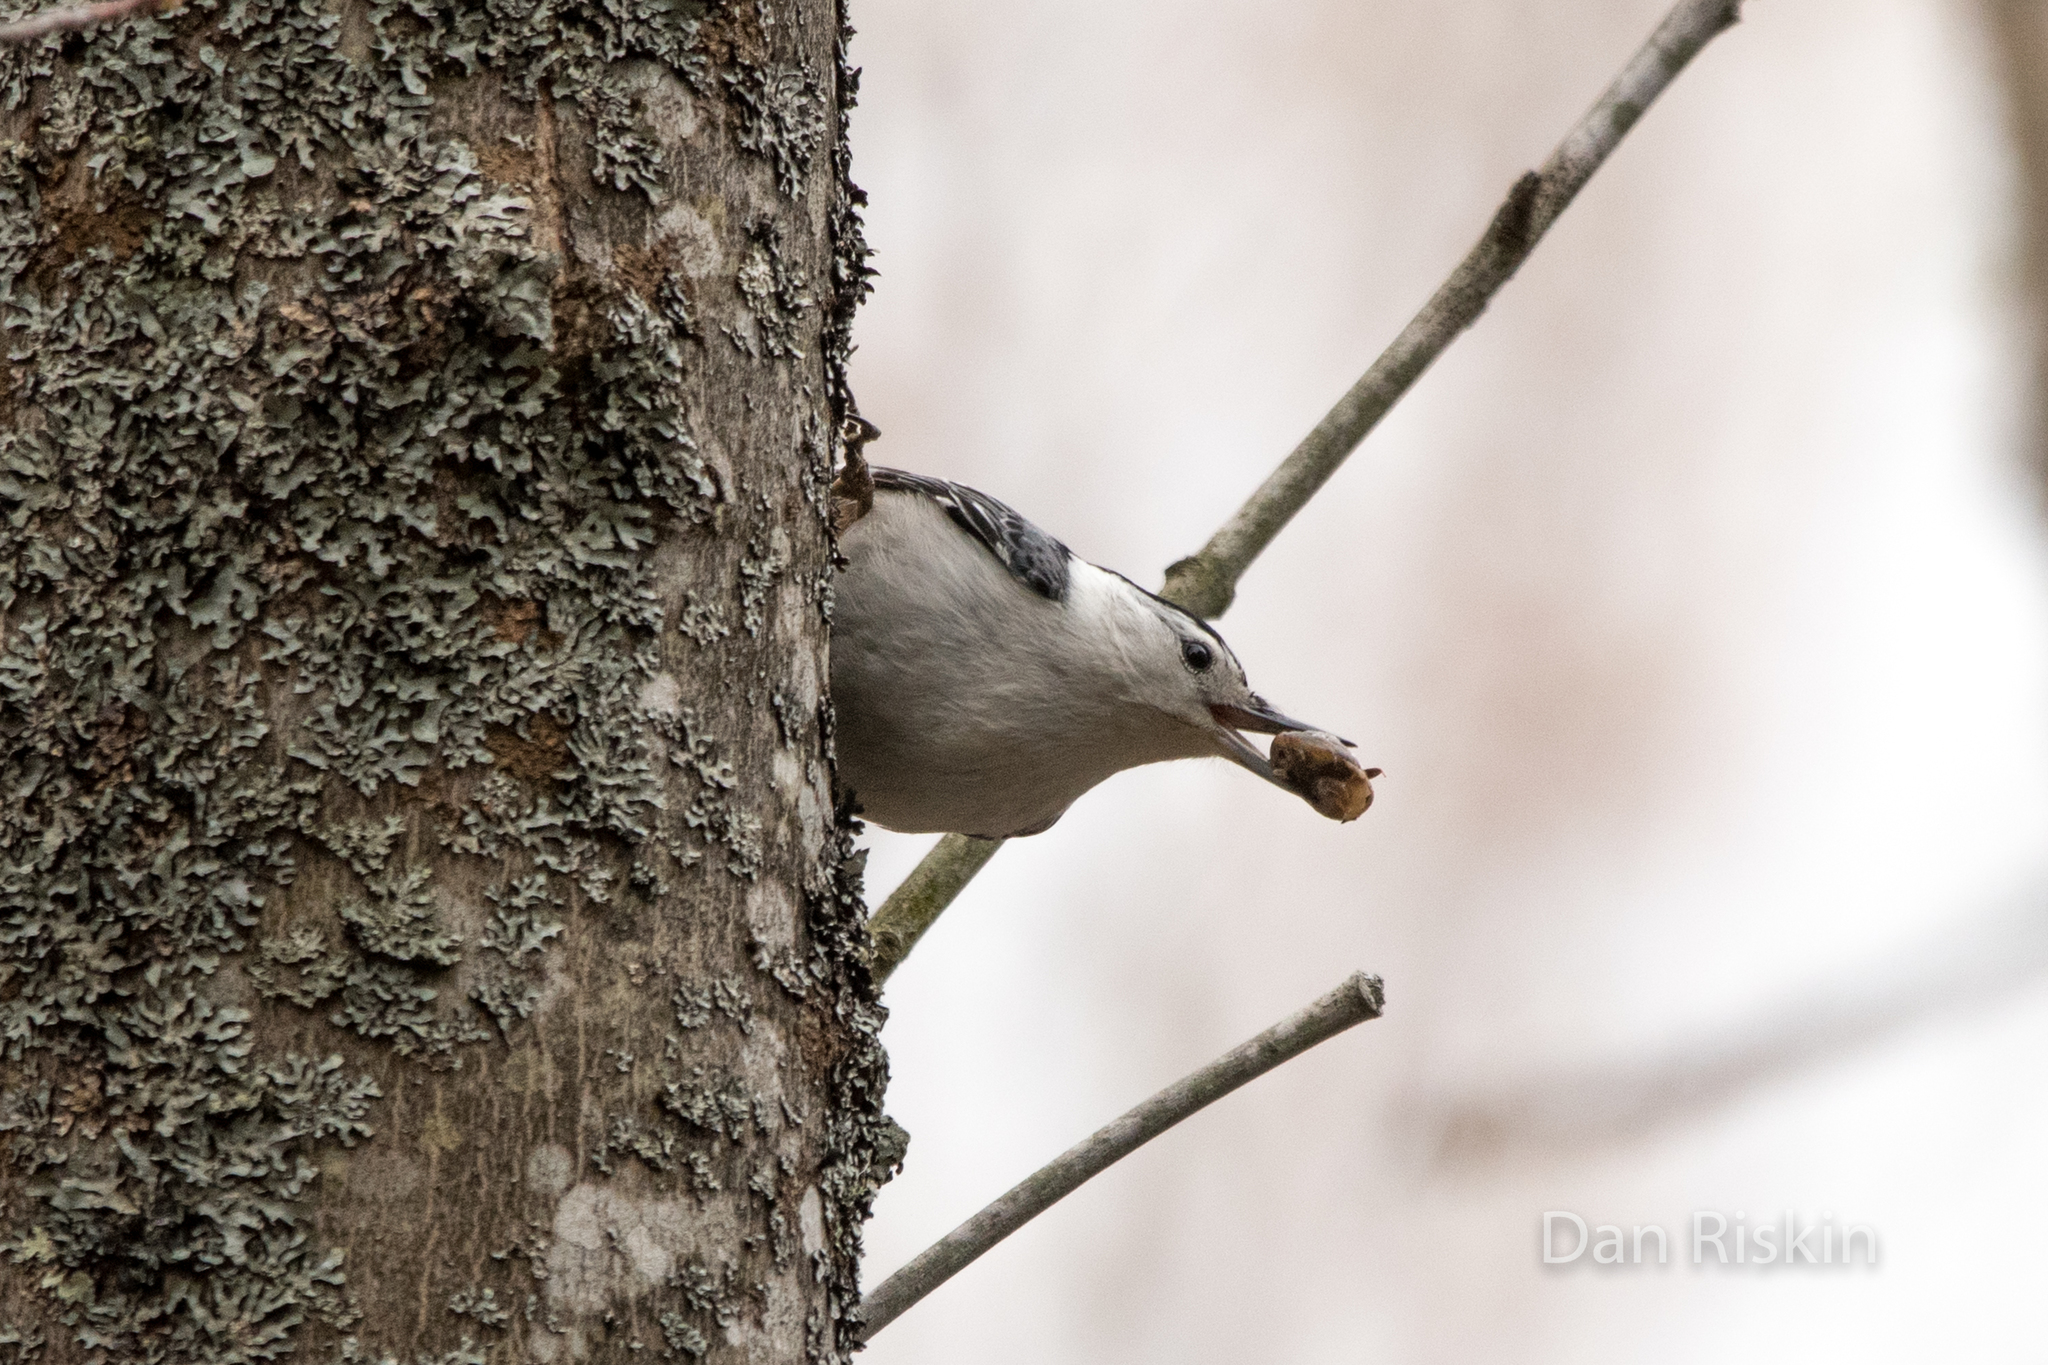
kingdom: Animalia
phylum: Chordata
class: Aves
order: Passeriformes
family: Sittidae
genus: Sitta
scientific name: Sitta carolinensis
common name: White-breasted nuthatch
